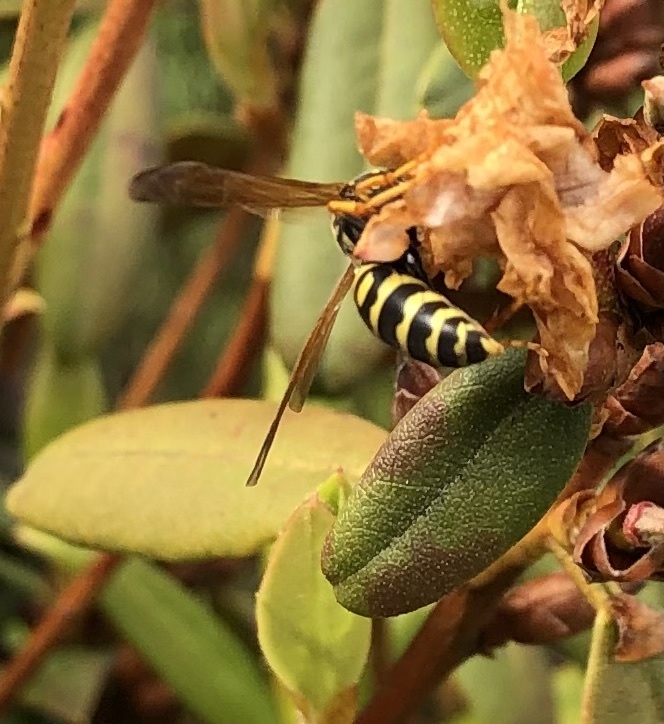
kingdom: Animalia
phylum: Arthropoda
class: Insecta
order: Hymenoptera
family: Eumenidae
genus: Polistes
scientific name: Polistes dominula
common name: Paper wasp
